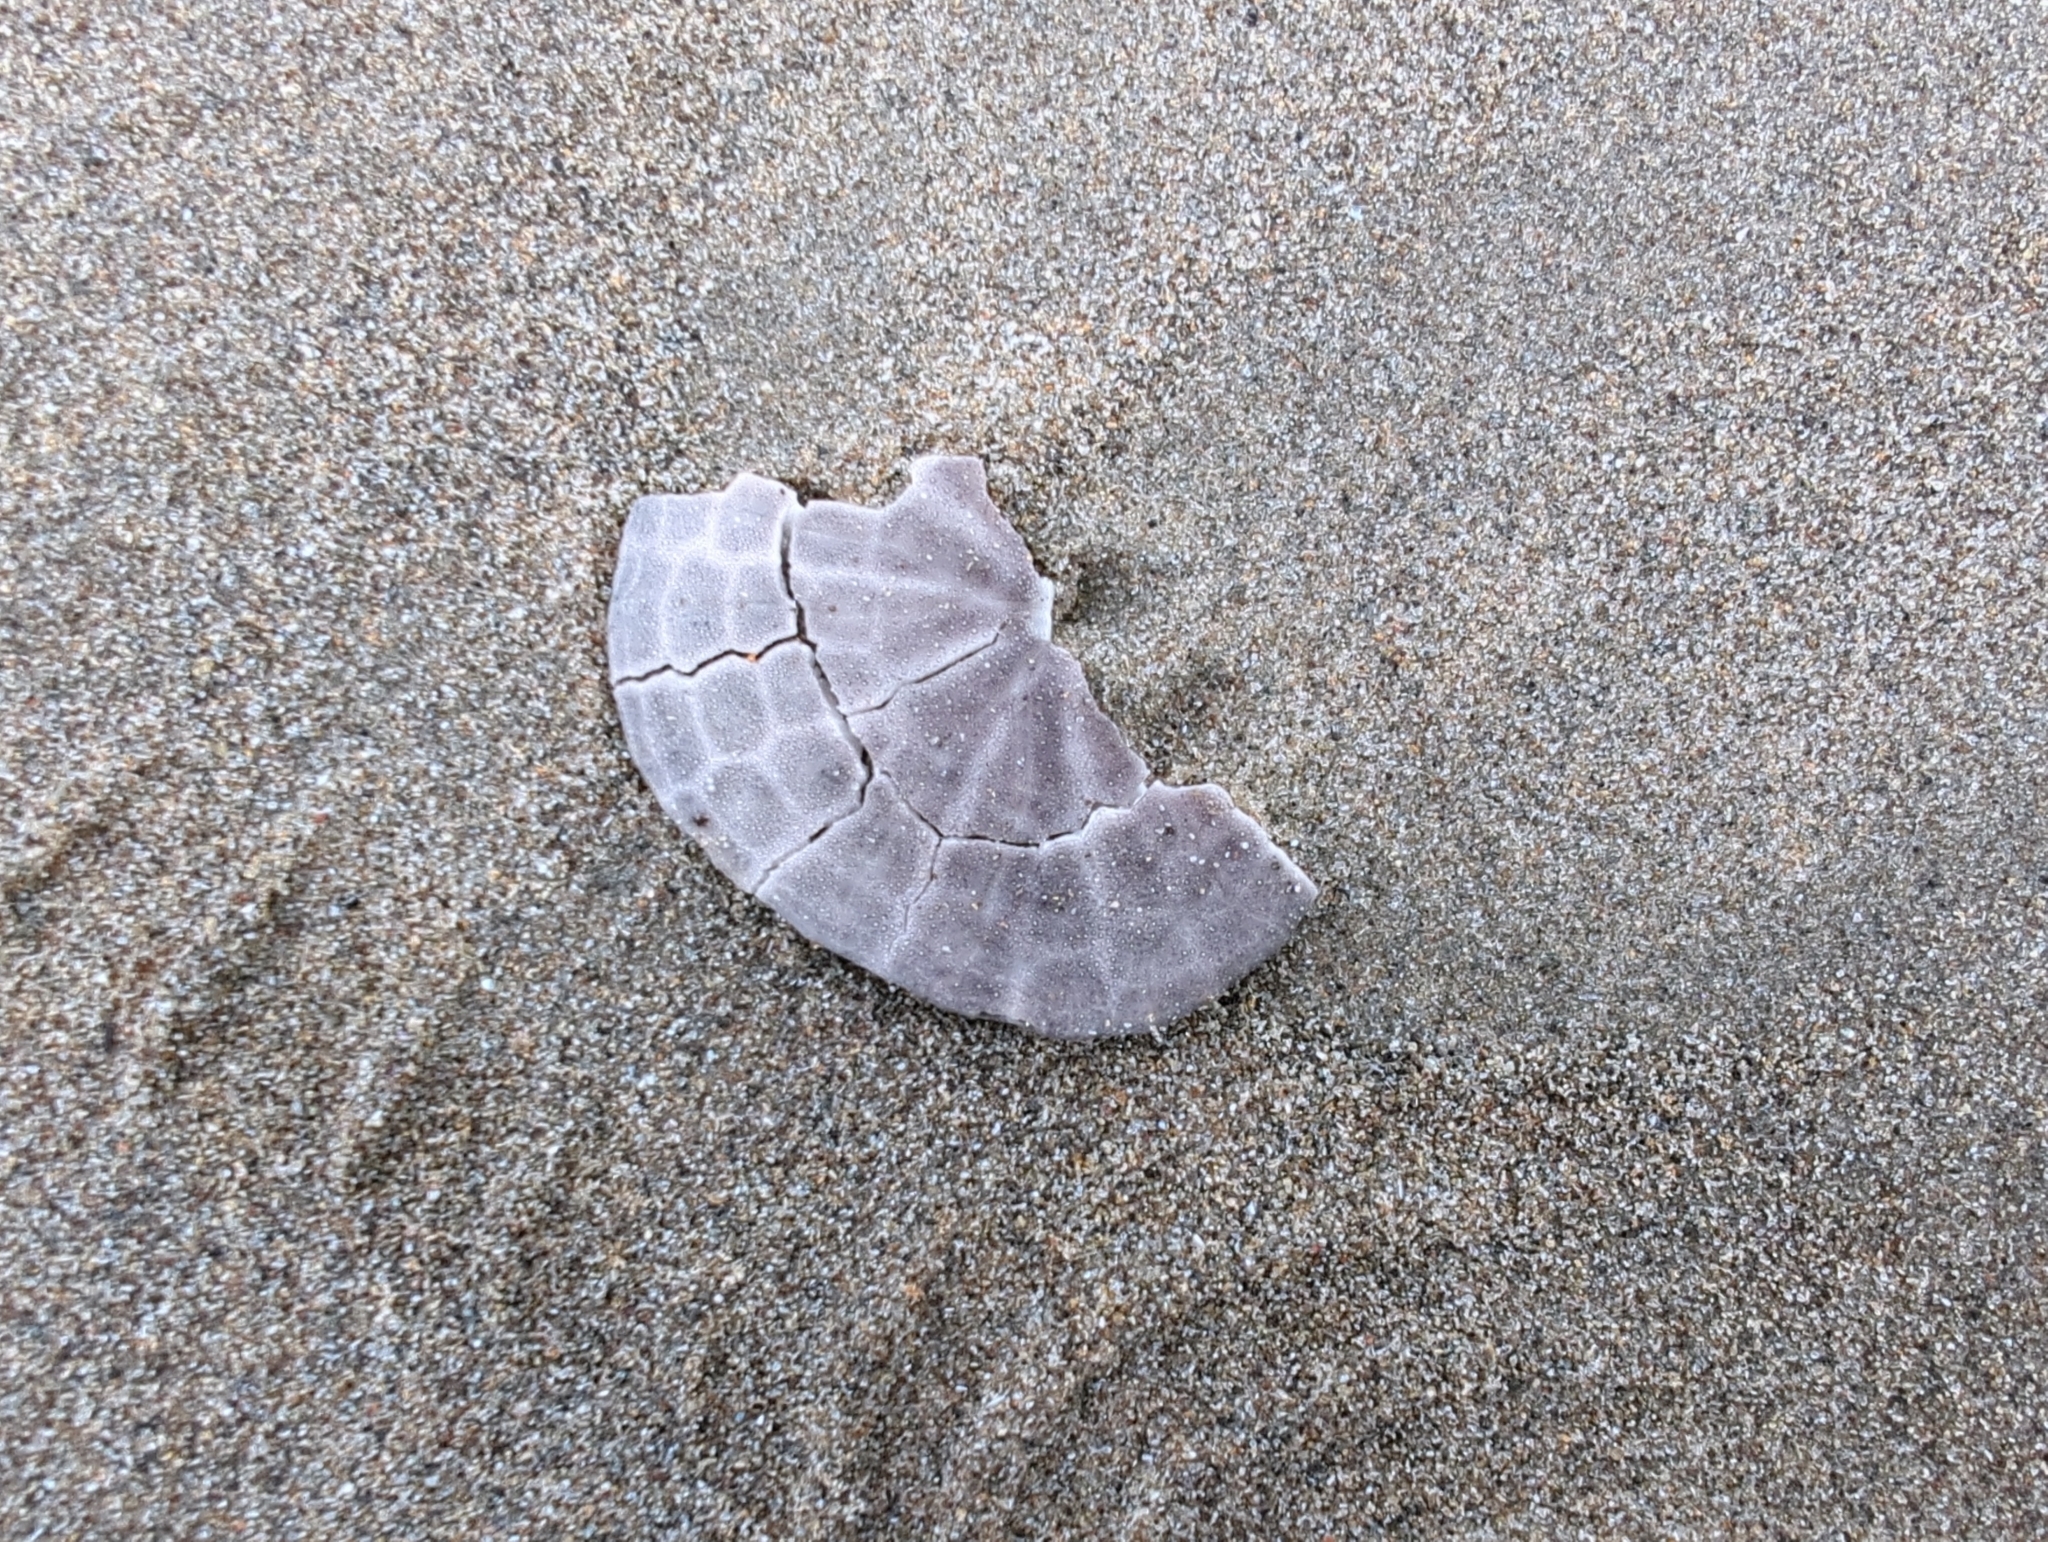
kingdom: Animalia
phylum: Echinodermata
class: Echinoidea
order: Echinolampadacea
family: Dendrasteridae
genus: Dendraster
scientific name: Dendraster excentricus
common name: Eccentric sand dollar sea urchin
